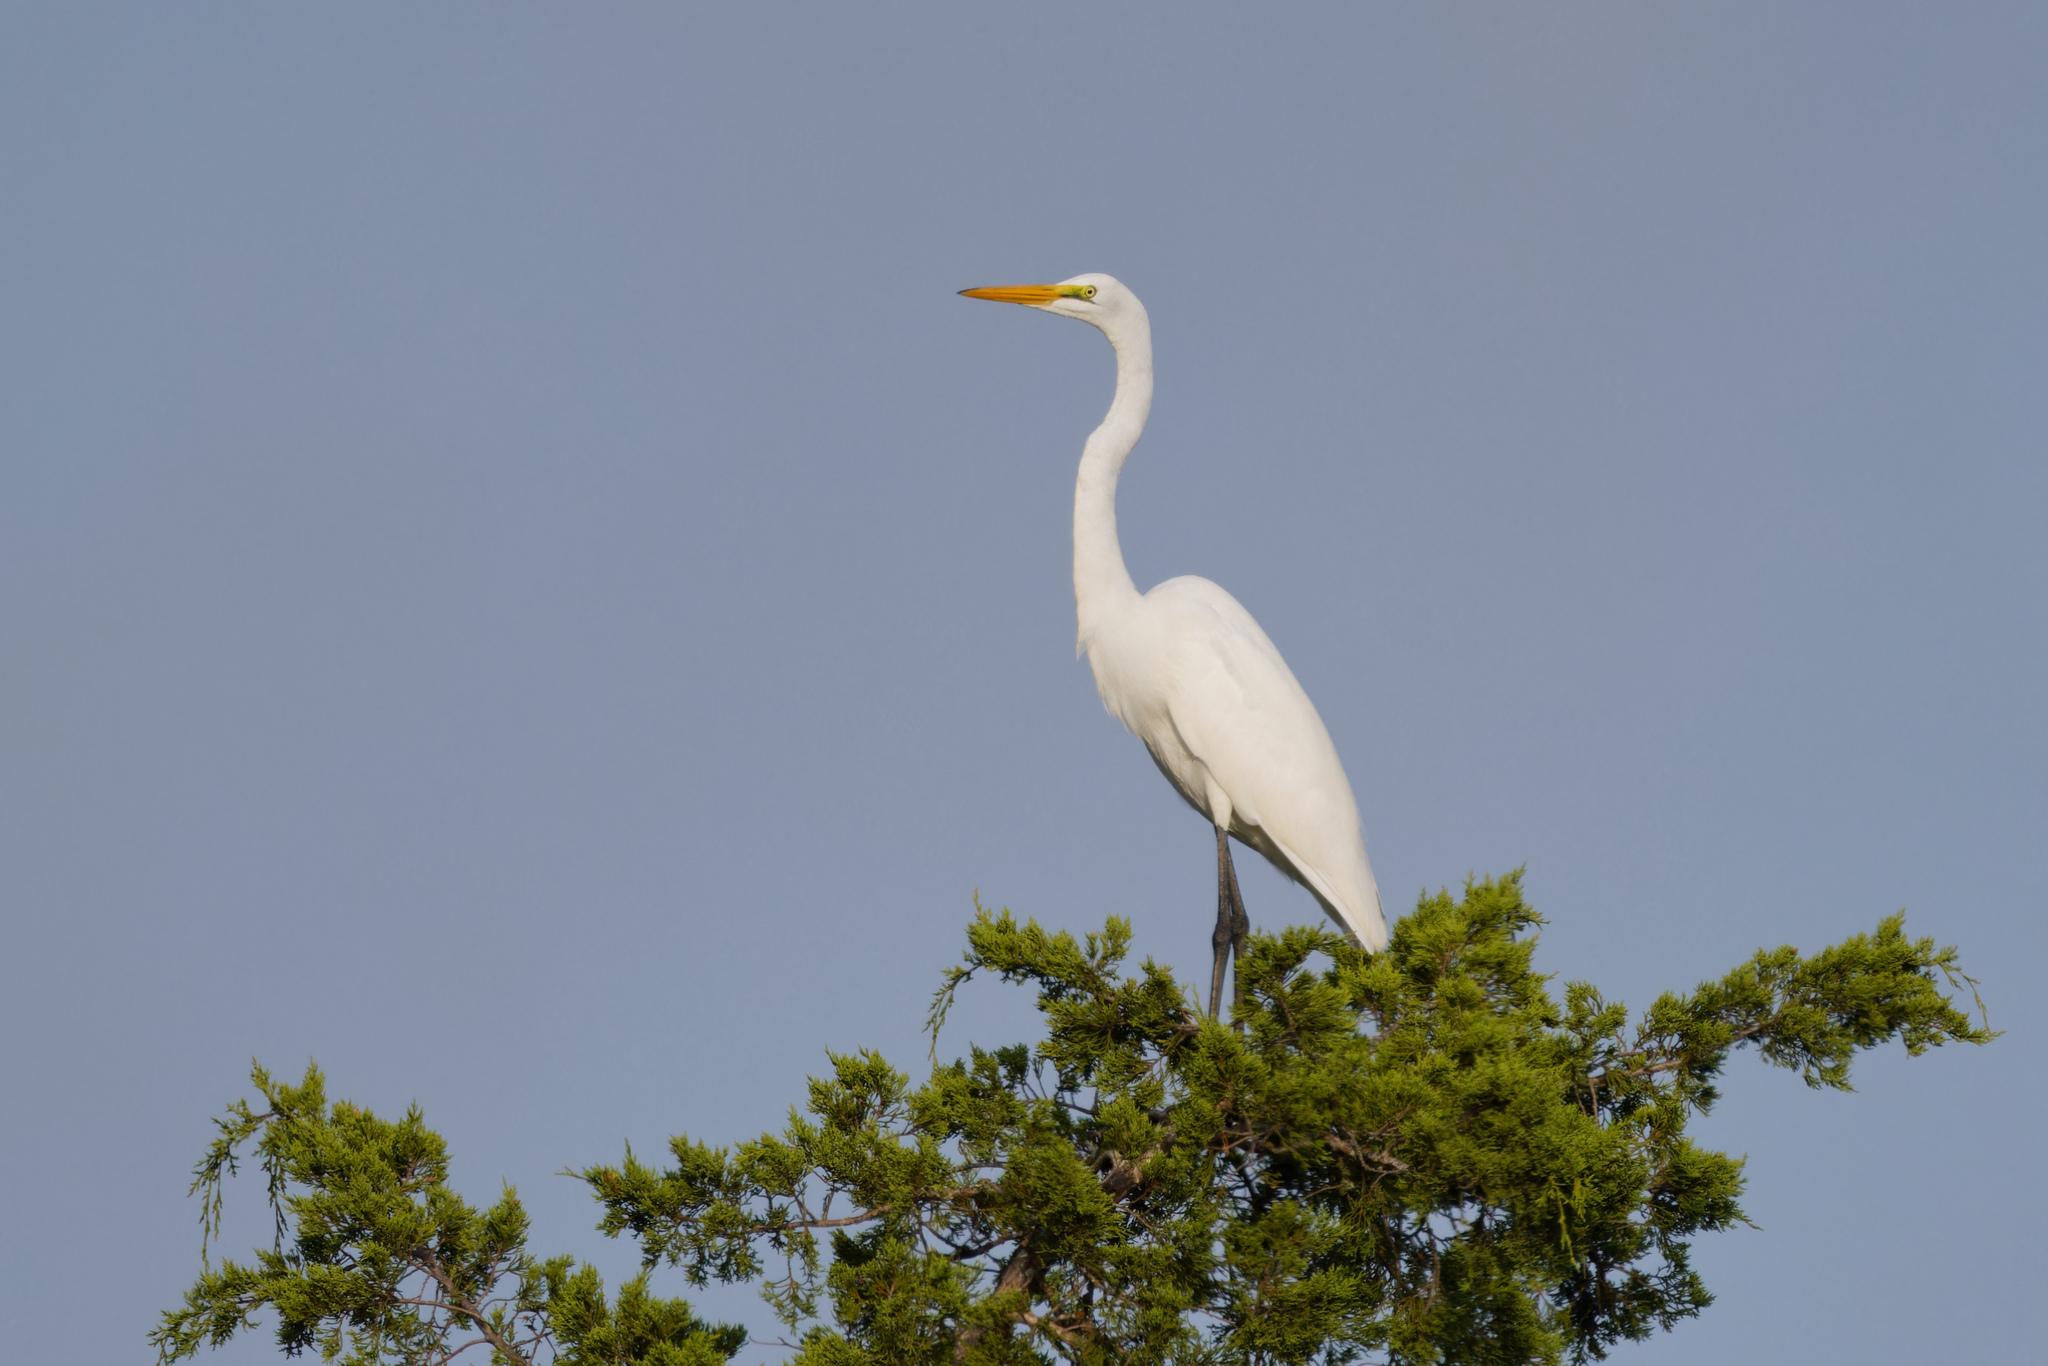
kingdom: Animalia
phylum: Chordata
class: Aves
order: Pelecaniformes
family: Ardeidae
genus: Ardea
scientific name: Ardea alba
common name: Great egret
